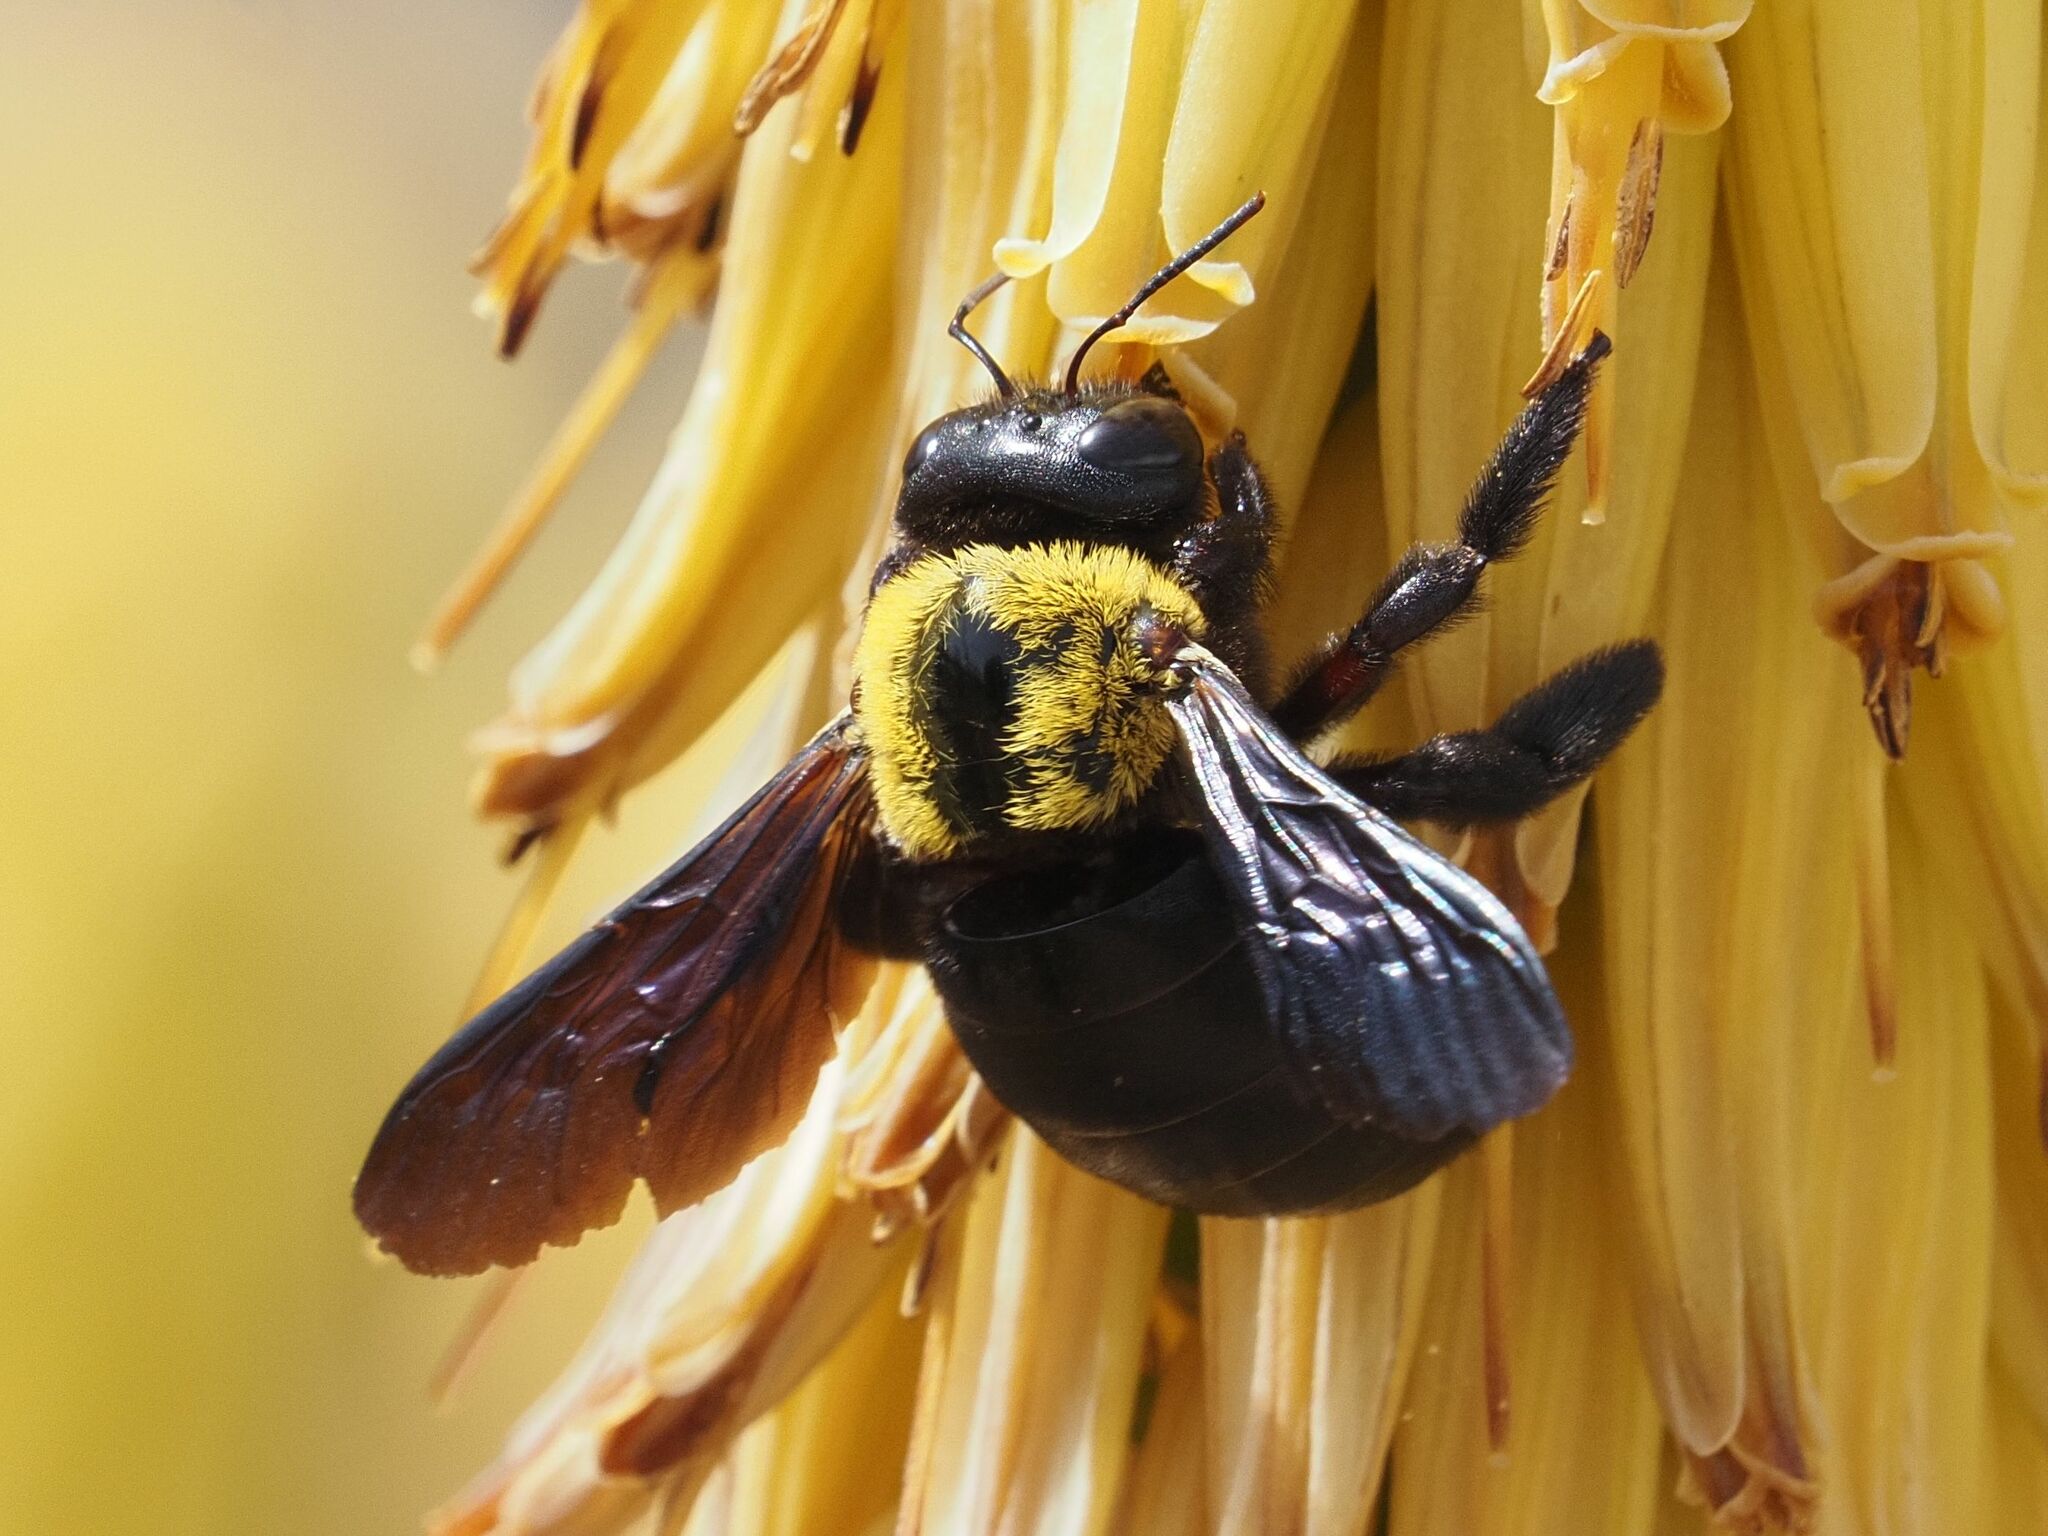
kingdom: Animalia
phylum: Arthropoda
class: Insecta
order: Hymenoptera
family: Apidae
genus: Xylocopa
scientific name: Xylocopa pubescens
